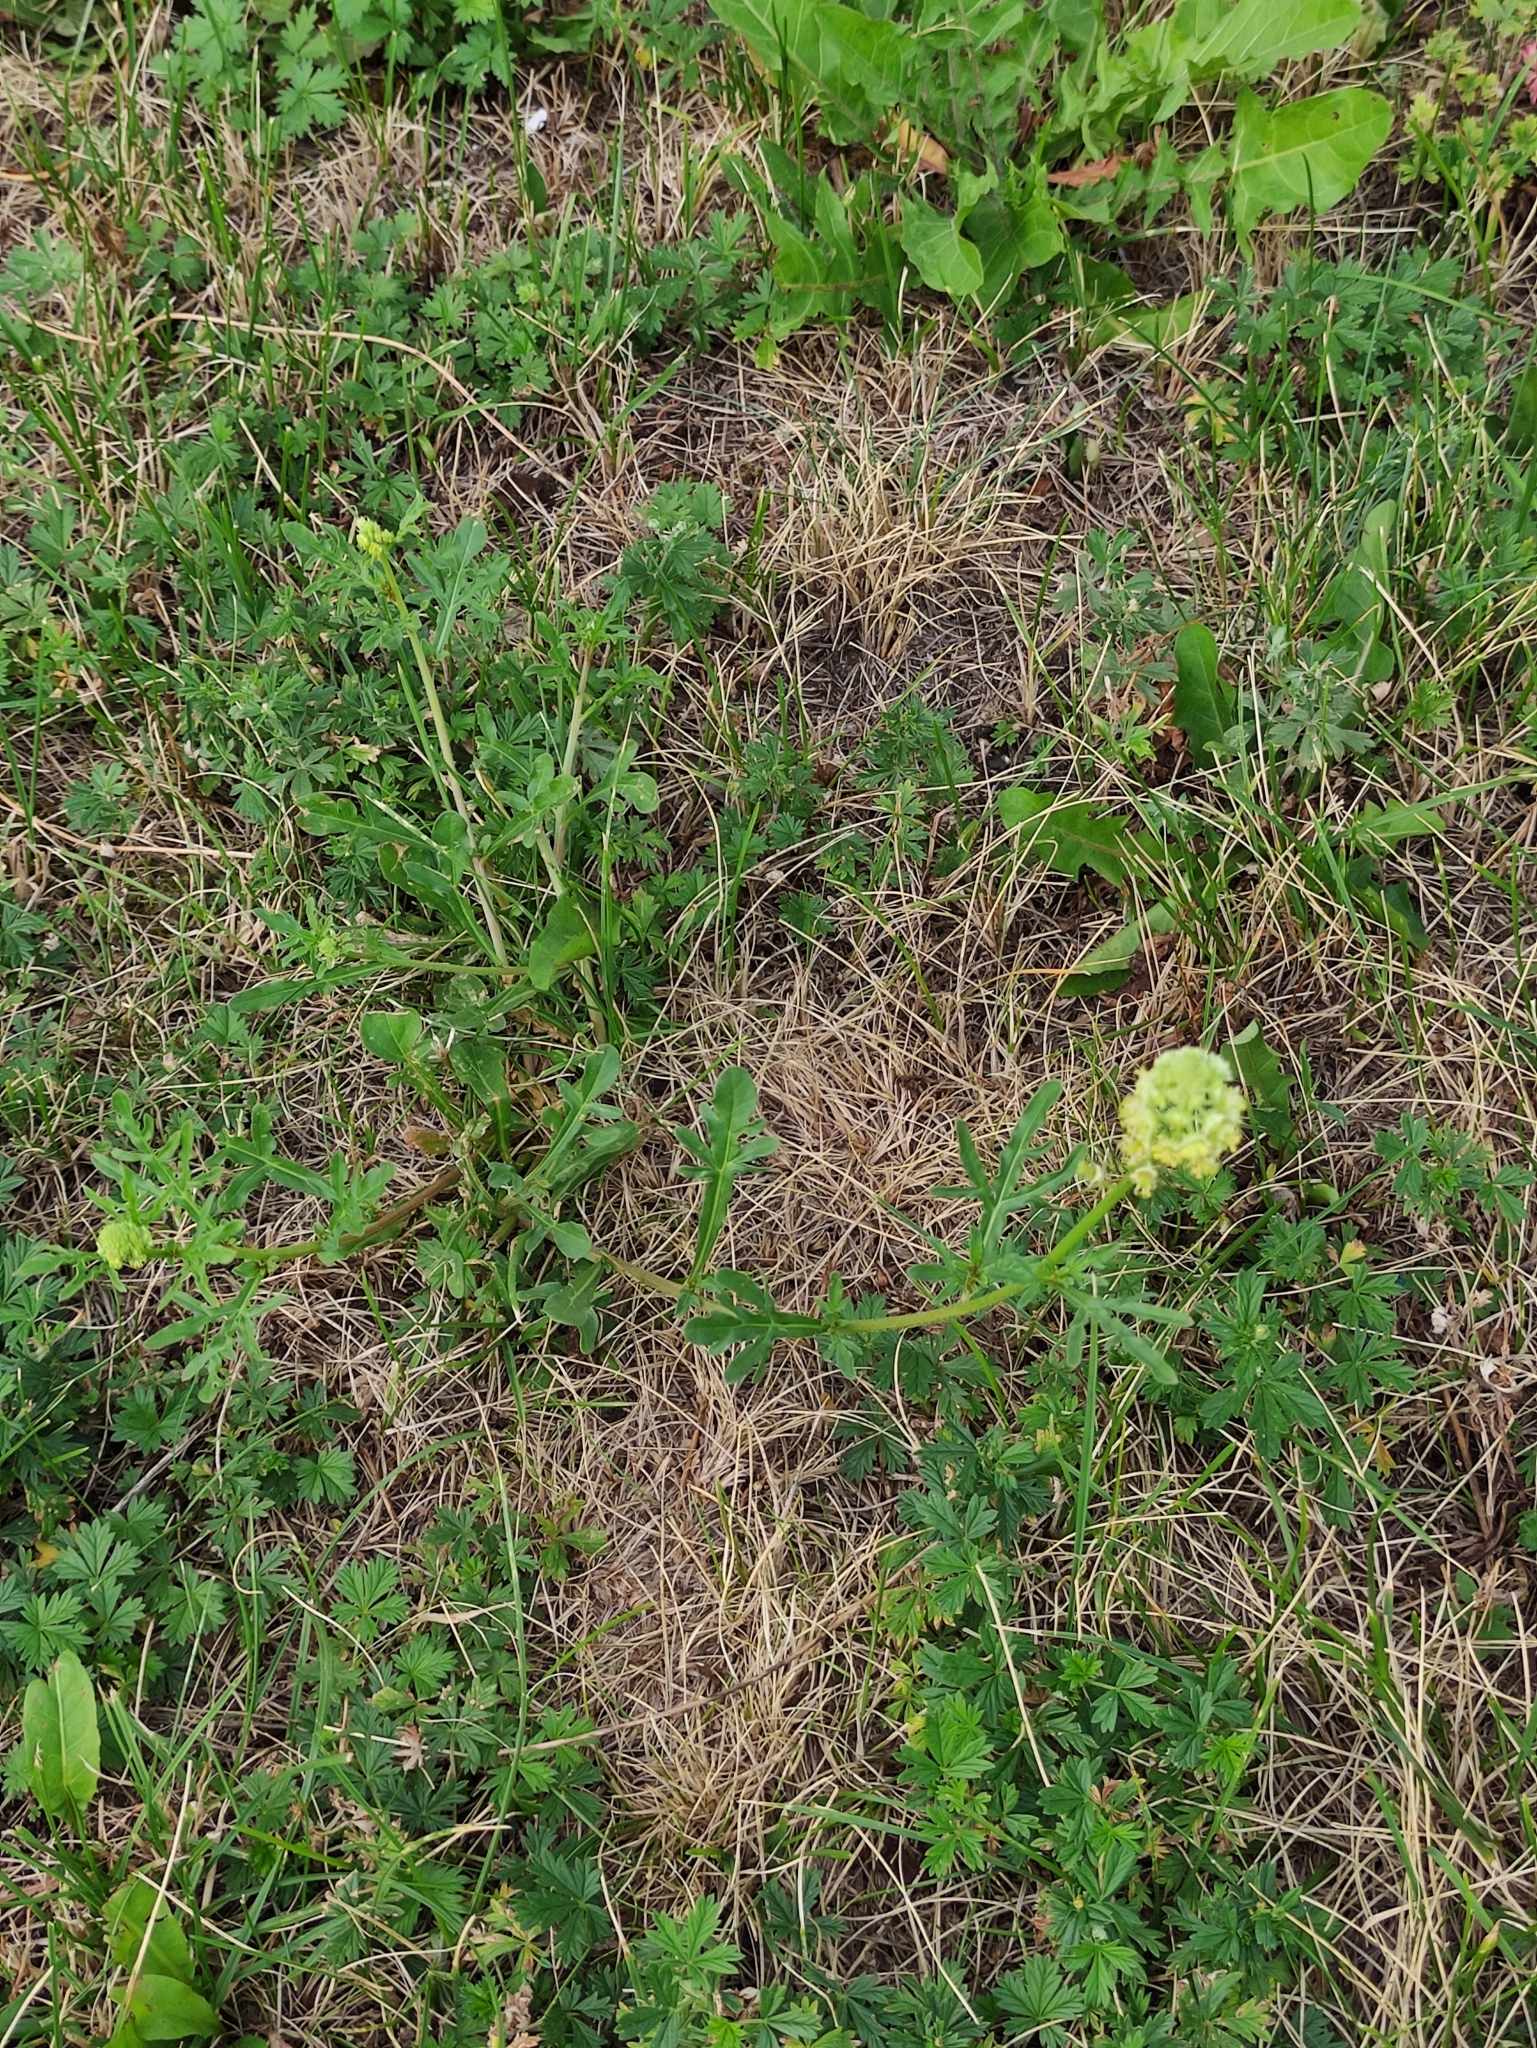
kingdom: Plantae
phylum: Tracheophyta
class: Magnoliopsida
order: Brassicales
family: Resedaceae
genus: Reseda
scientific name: Reseda lutea
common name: Wild mignonette
